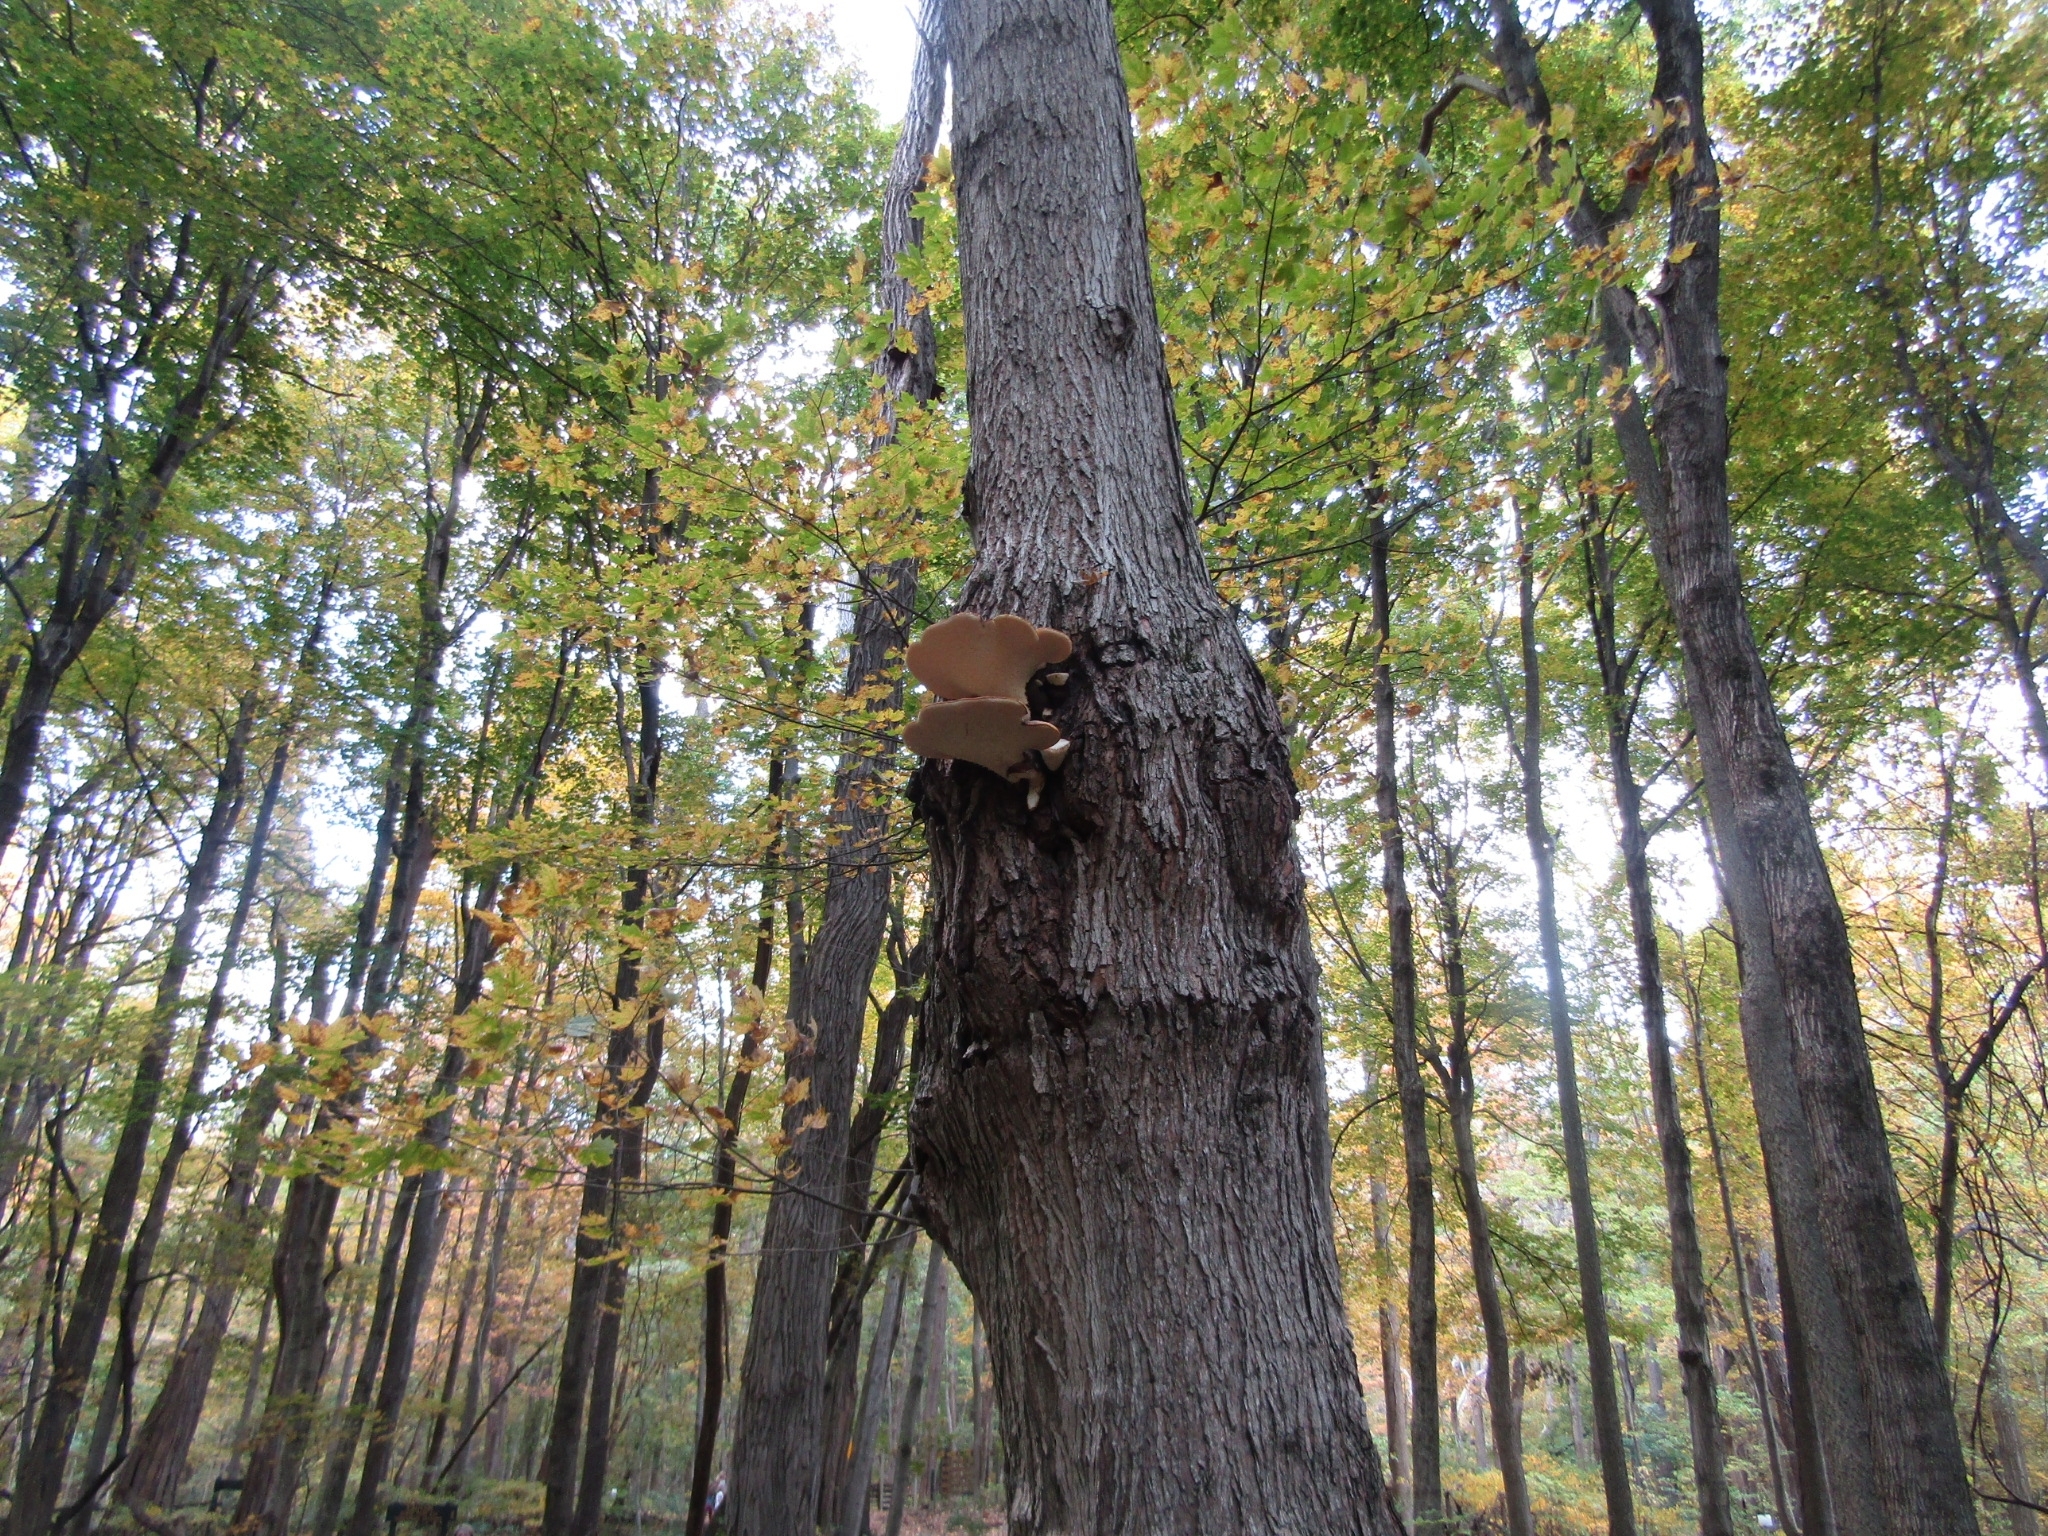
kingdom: Fungi
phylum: Basidiomycota
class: Agaricomycetes
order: Polyporales
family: Polyporaceae
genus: Cerioporus
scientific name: Cerioporus squamosus
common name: Dryad's saddle
